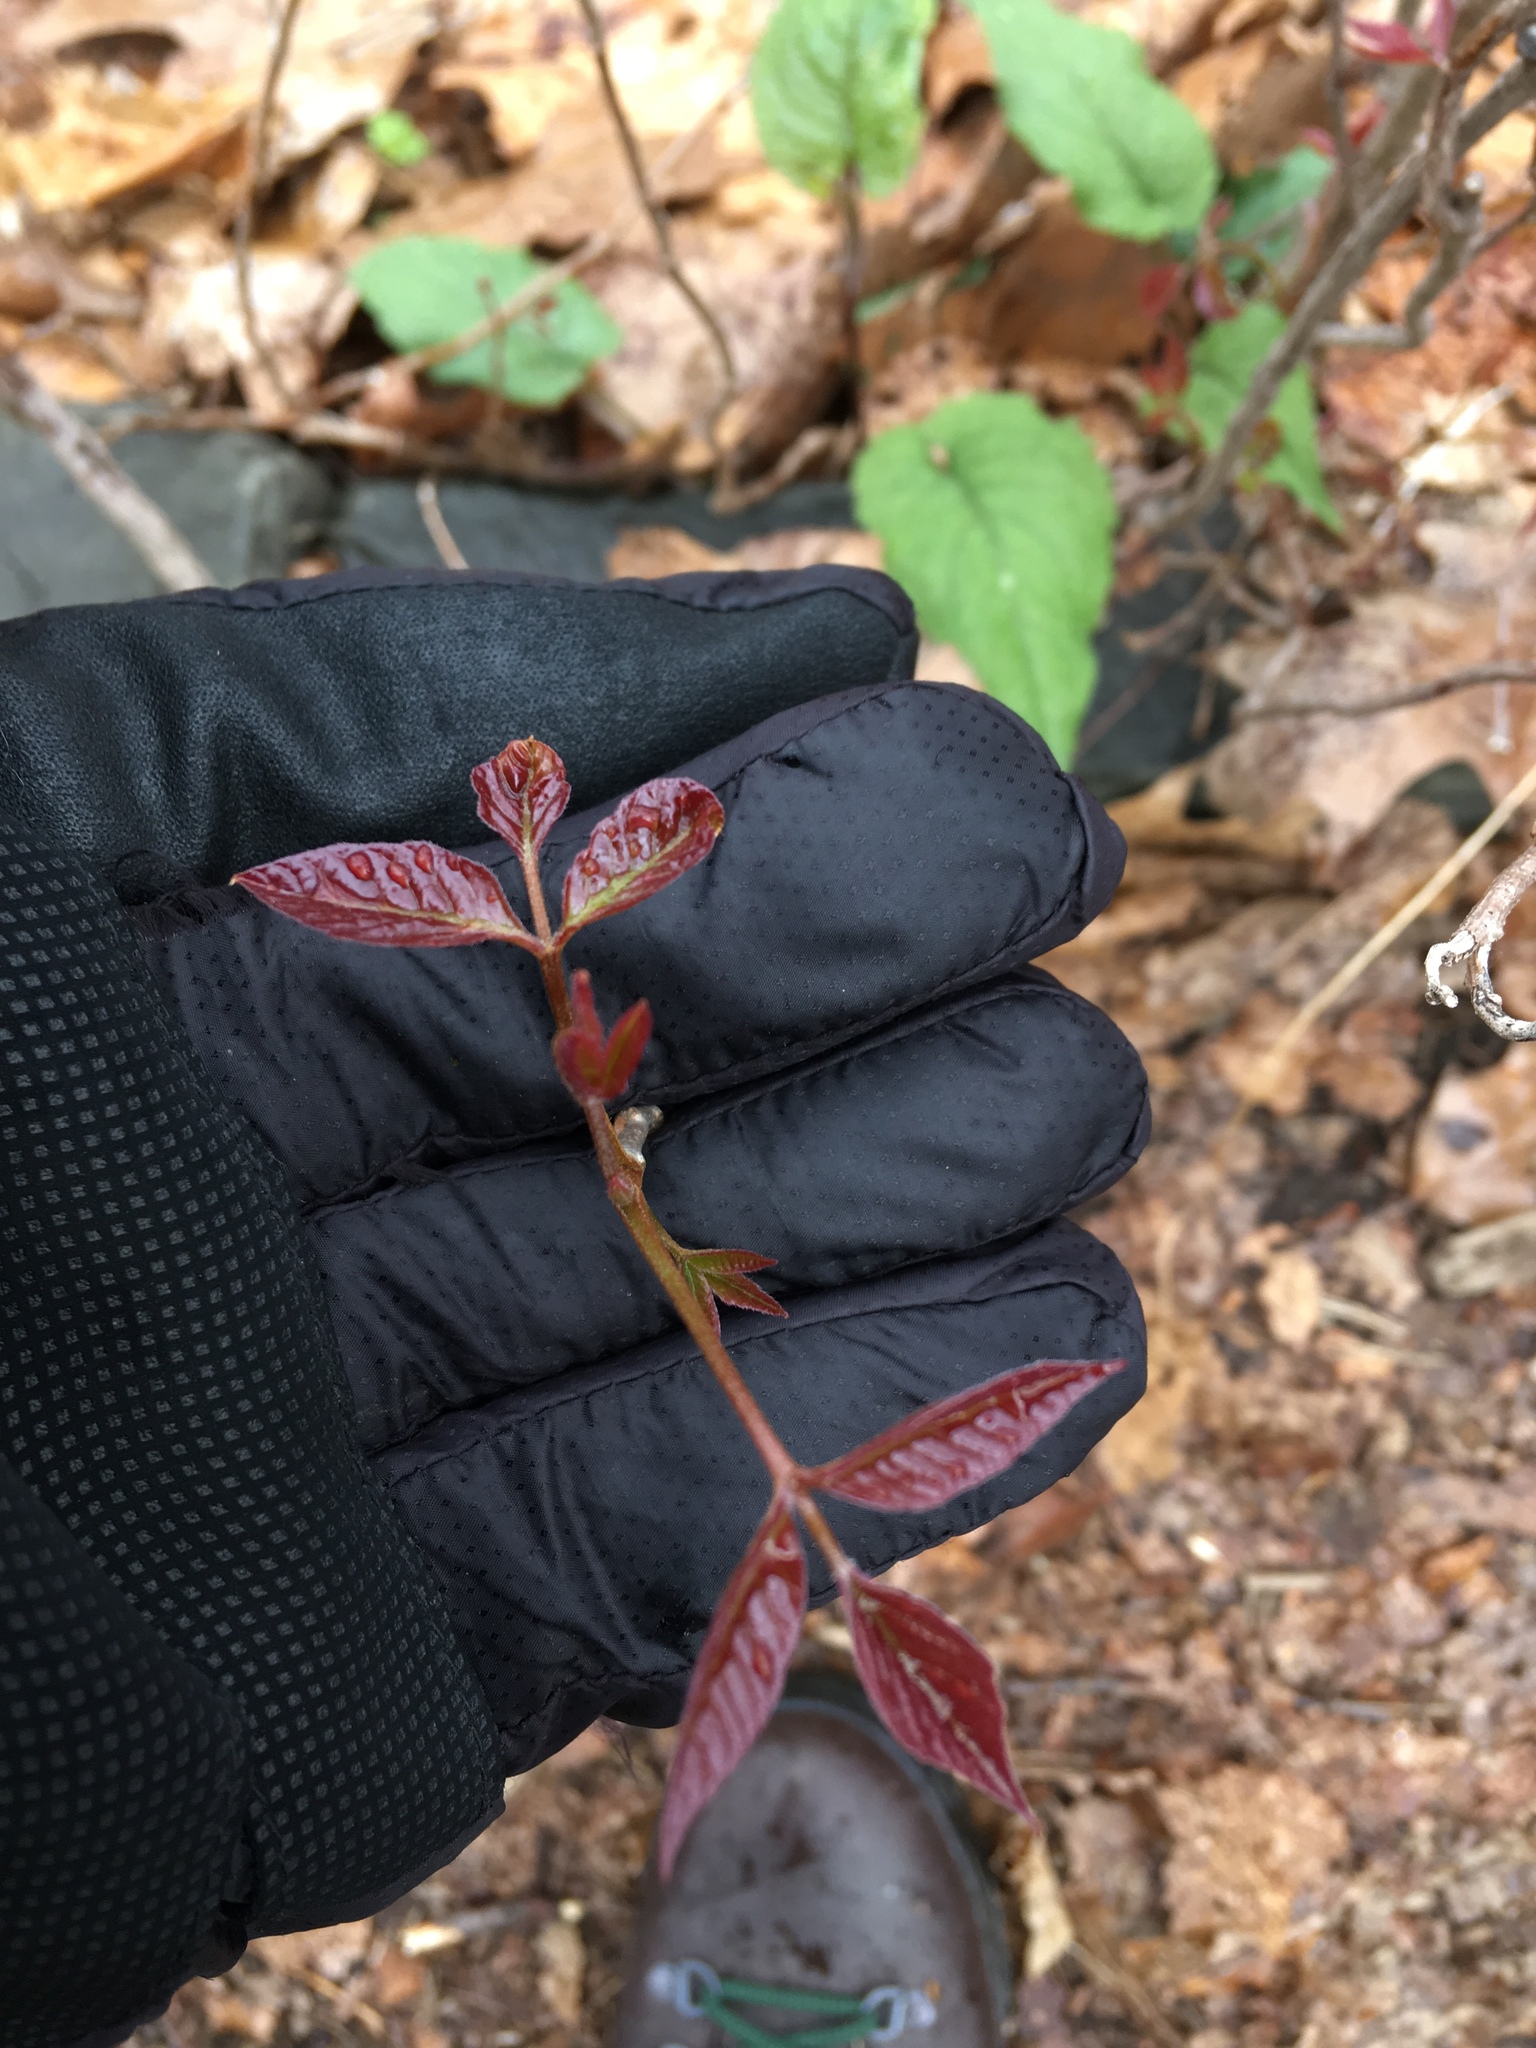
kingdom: Plantae
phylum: Tracheophyta
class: Magnoliopsida
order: Sapindales
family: Anacardiaceae
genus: Toxicodendron
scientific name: Toxicodendron radicans
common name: Poison ivy
